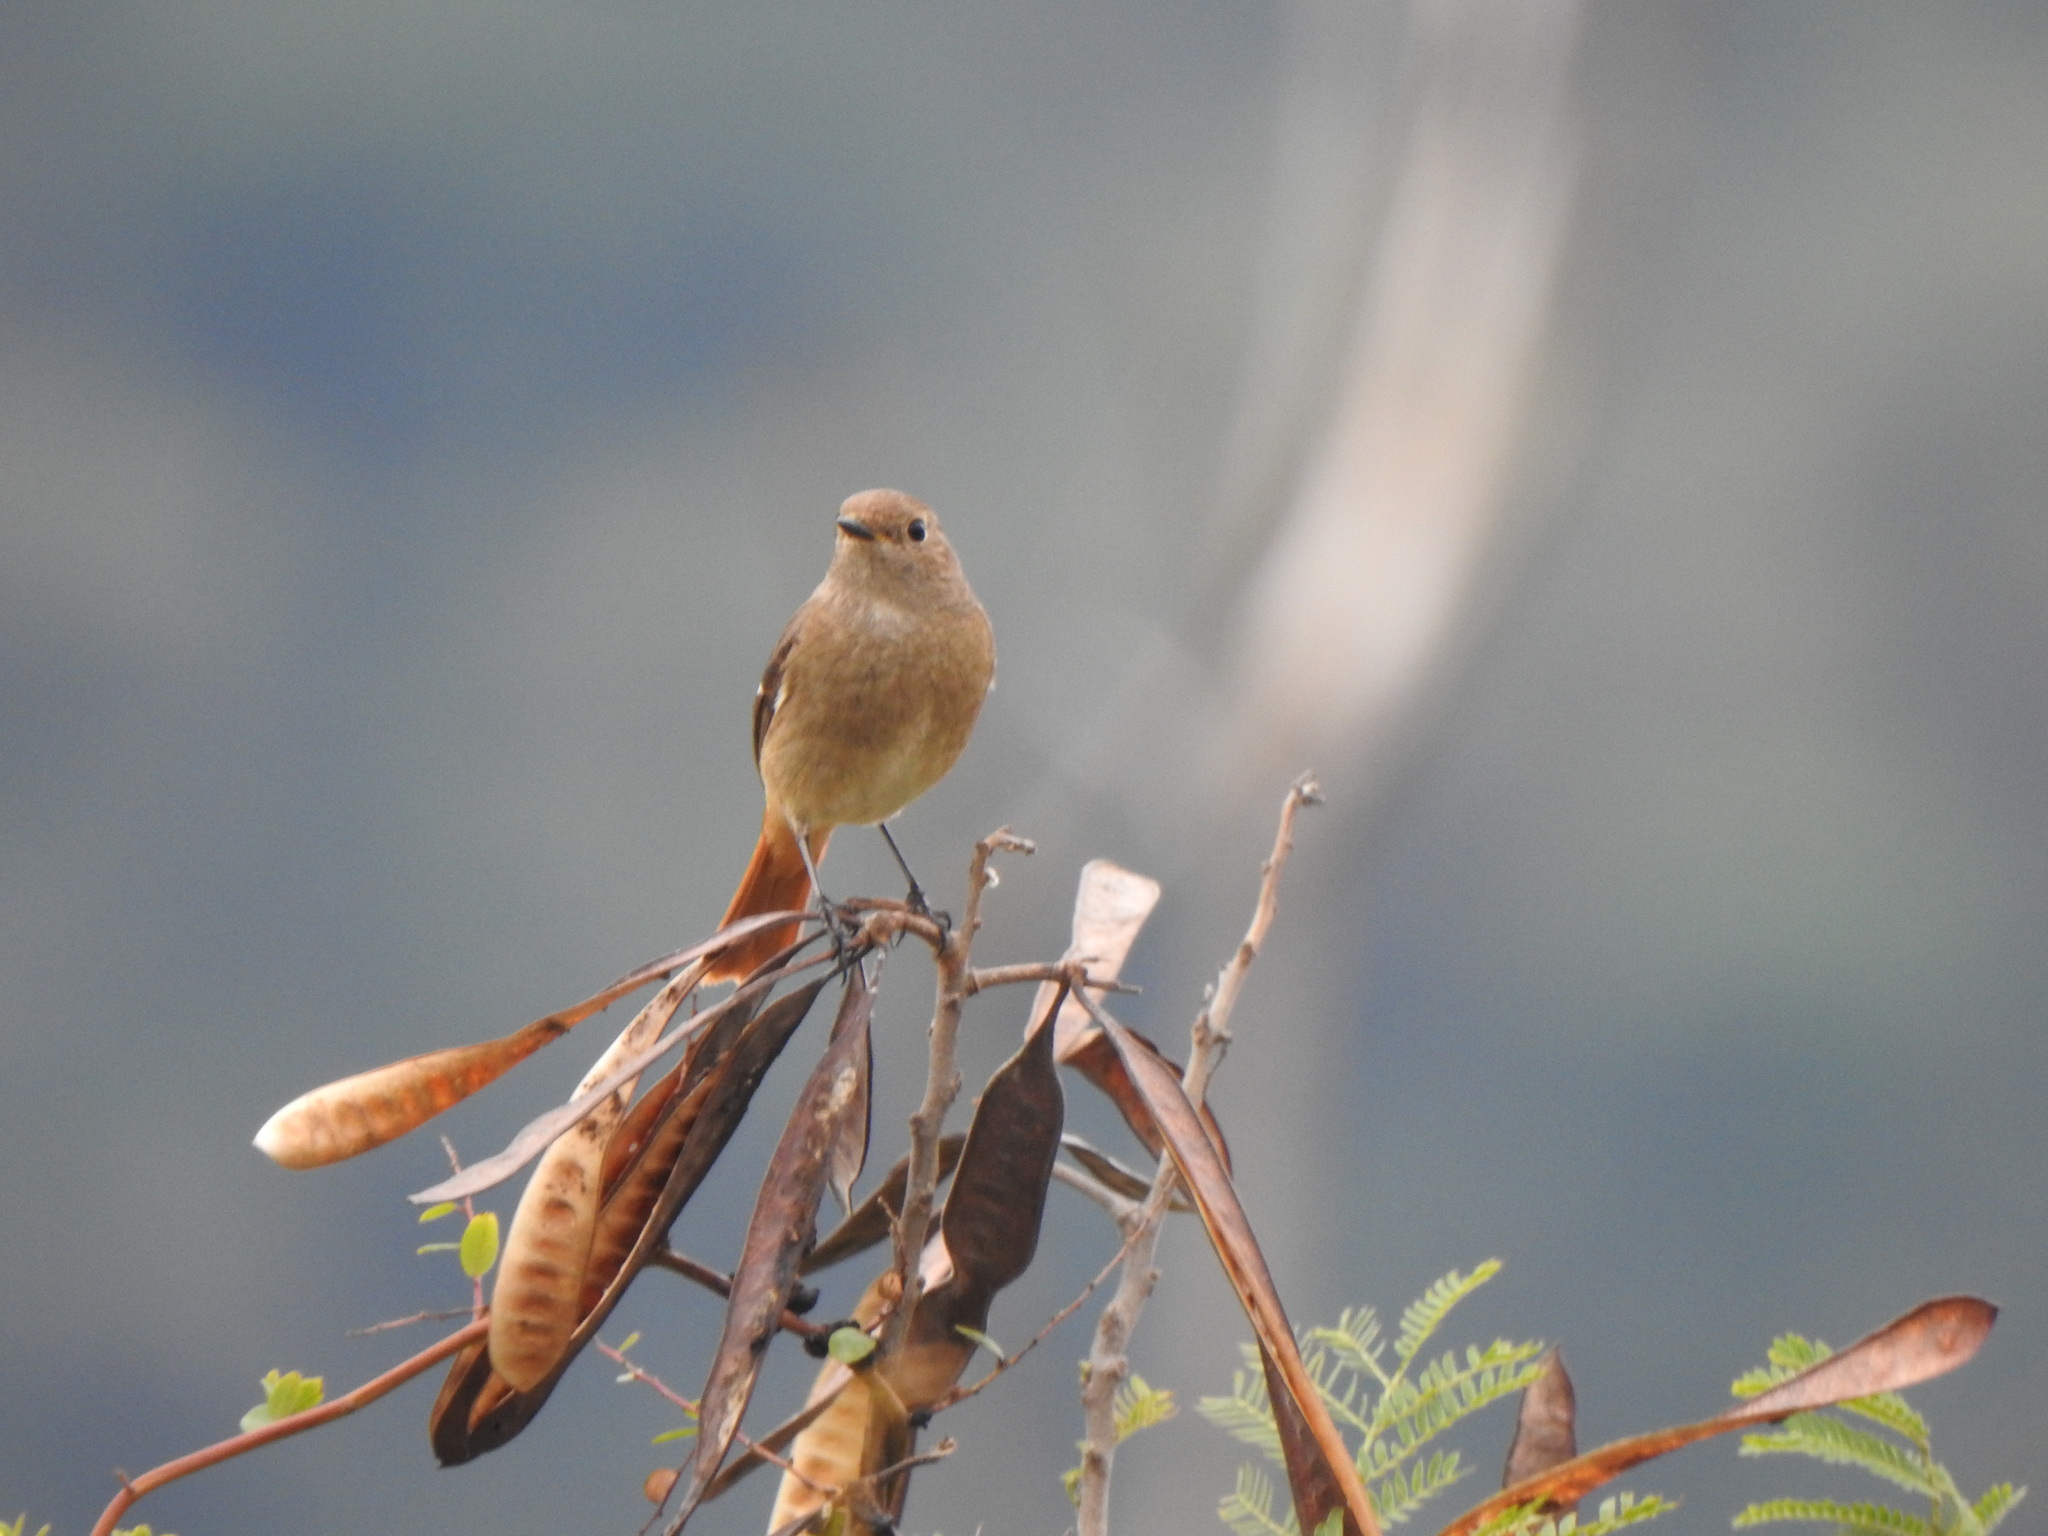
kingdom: Animalia
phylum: Chordata
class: Aves
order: Passeriformes
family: Muscicapidae
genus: Phoenicurus
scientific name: Phoenicurus auroreus
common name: Daurian redstart
